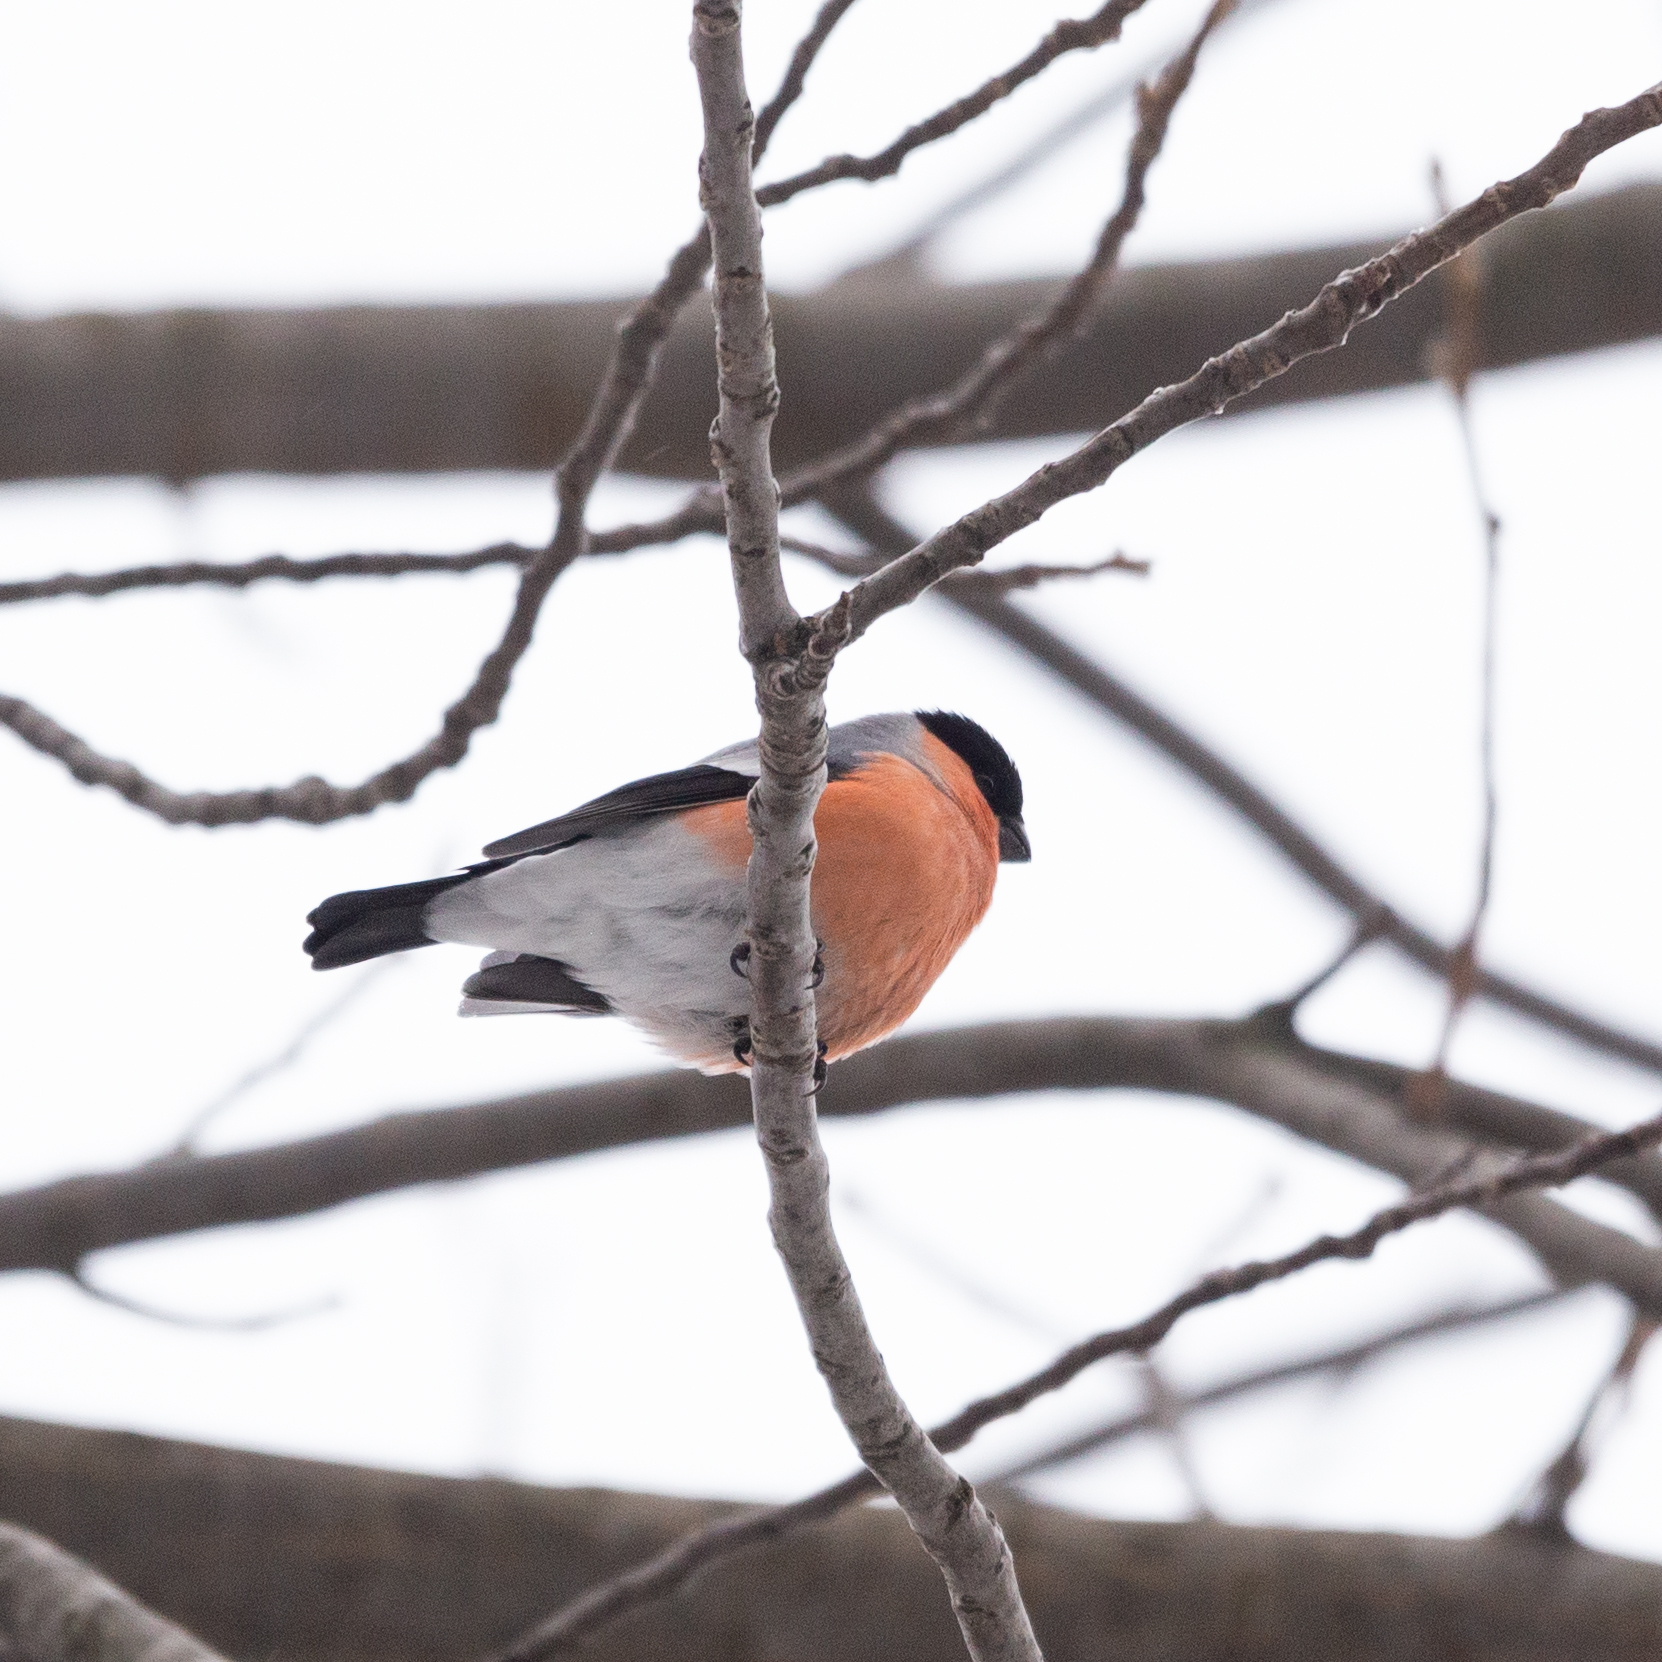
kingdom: Animalia
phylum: Chordata
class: Aves
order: Passeriformes
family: Fringillidae
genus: Pyrrhula
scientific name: Pyrrhula pyrrhula
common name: Eurasian bullfinch
